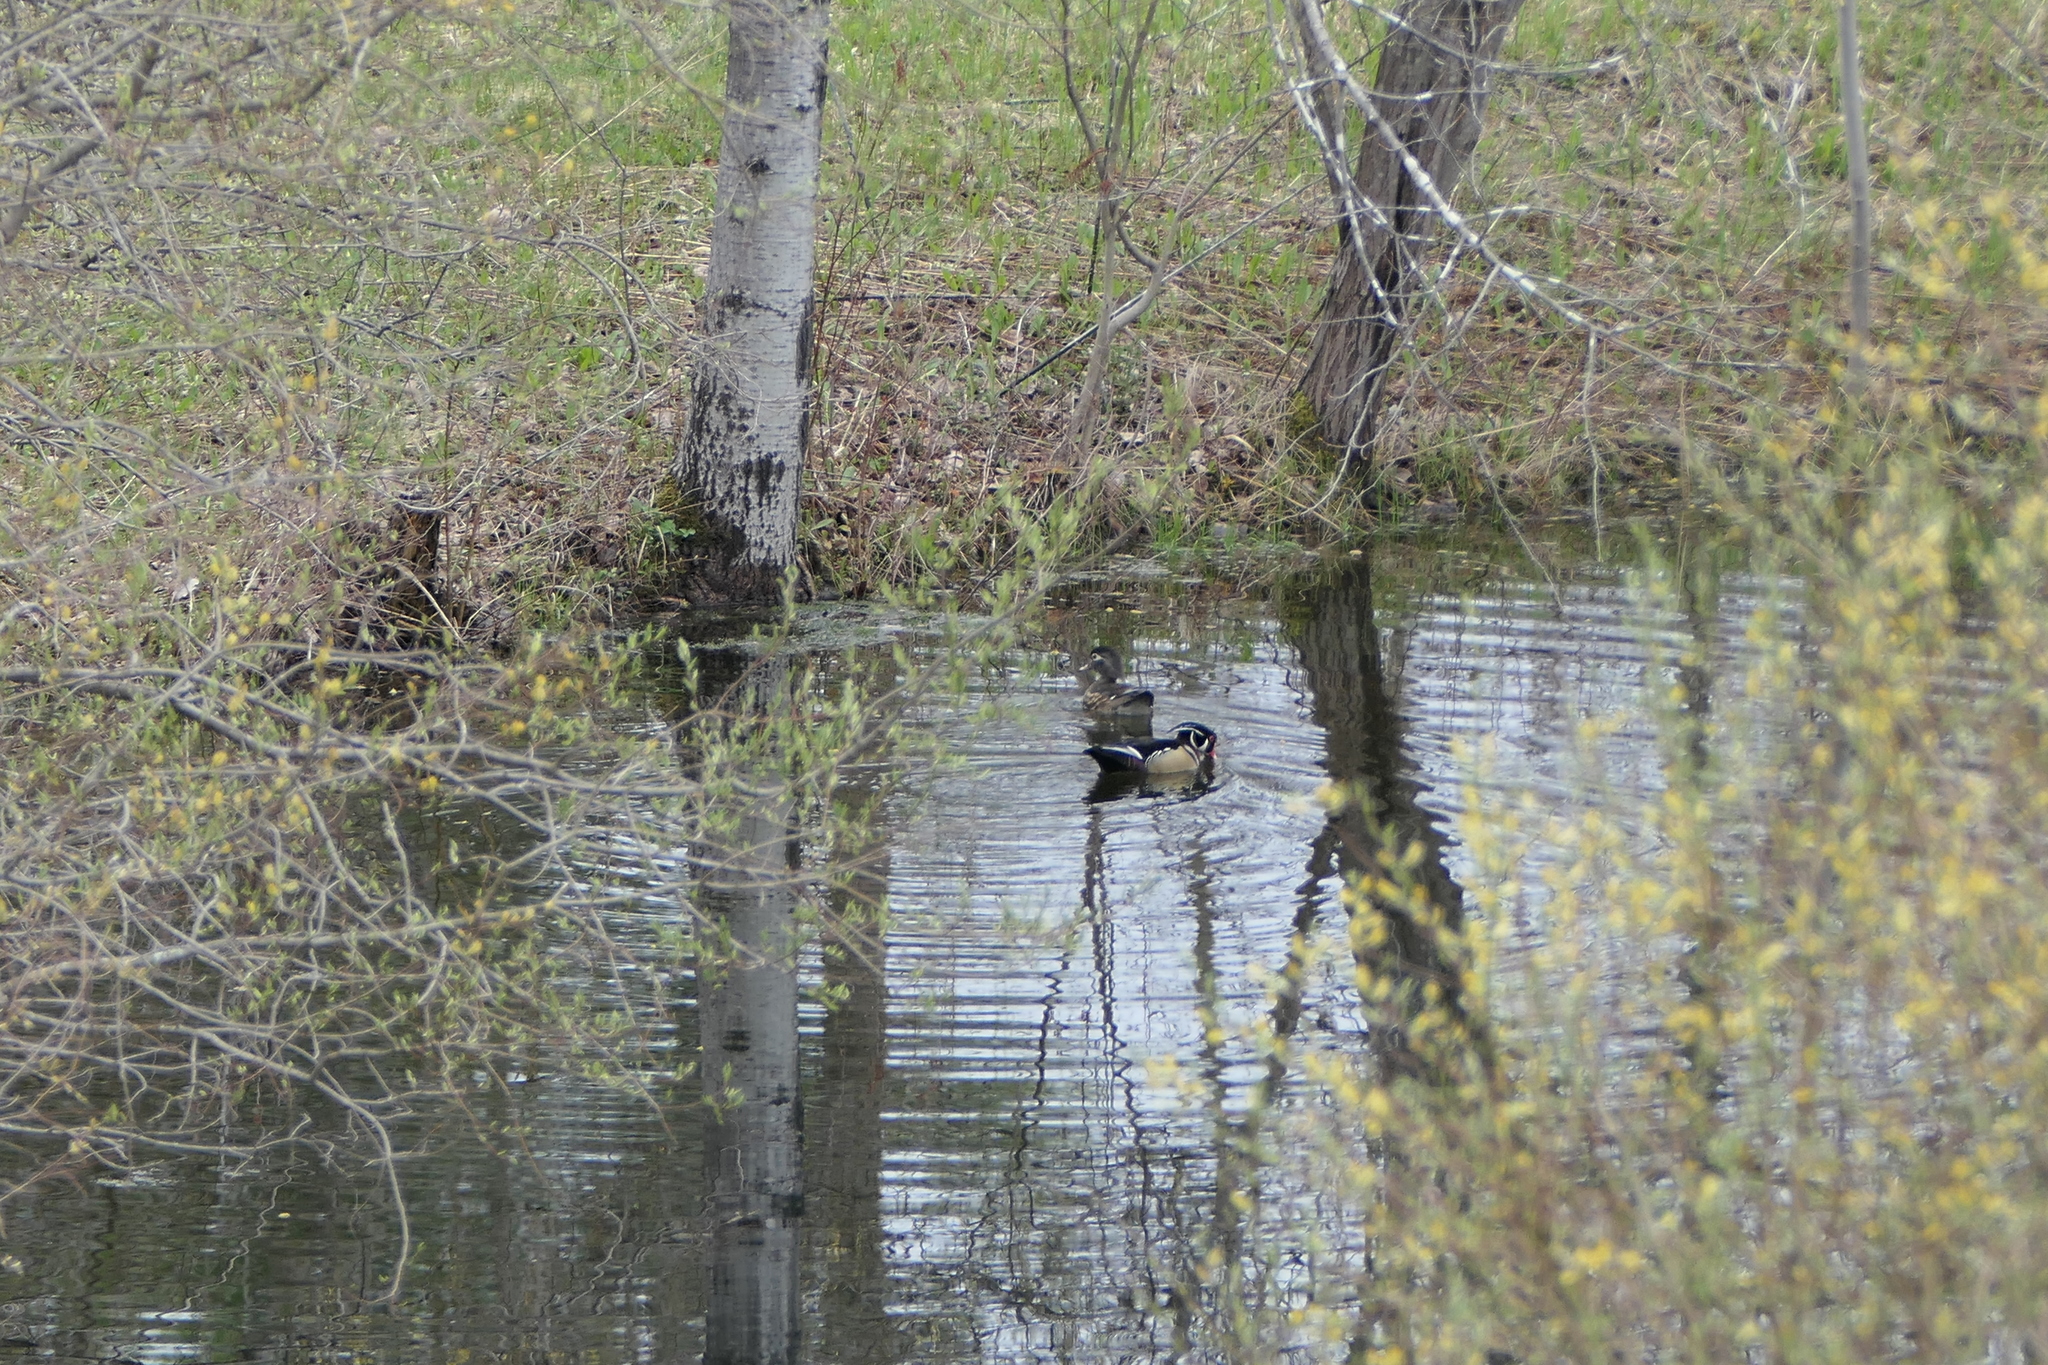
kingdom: Animalia
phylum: Chordata
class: Aves
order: Anseriformes
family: Anatidae
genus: Aix
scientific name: Aix sponsa
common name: Wood duck
